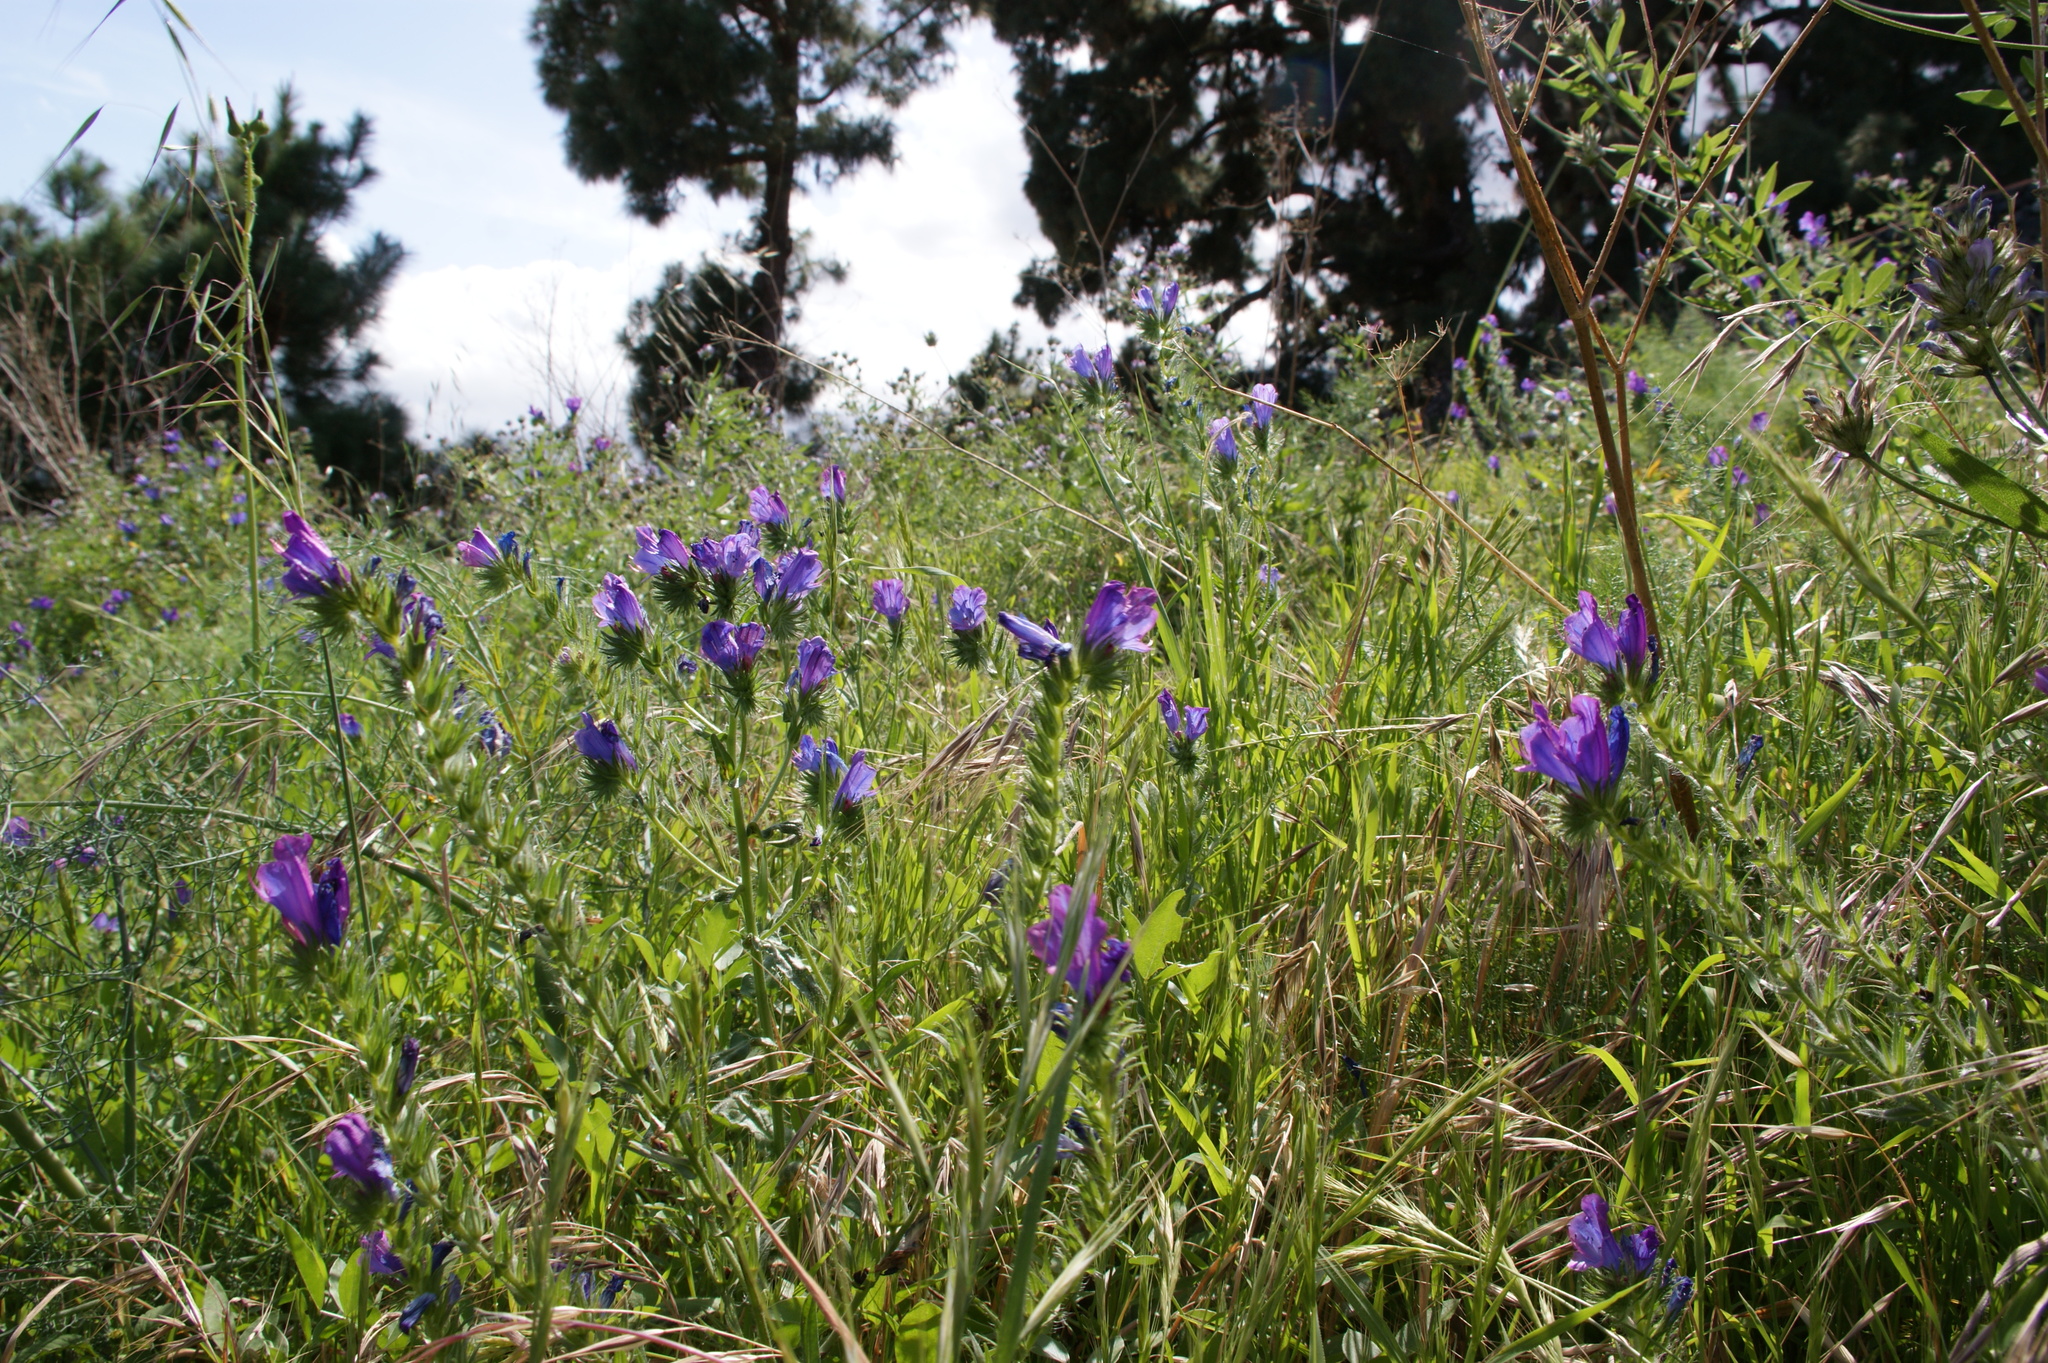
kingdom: Plantae
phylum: Tracheophyta
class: Magnoliopsida
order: Boraginales
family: Boraginaceae
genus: Echium
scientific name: Echium plantagineum
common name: Purple viper's-bugloss
